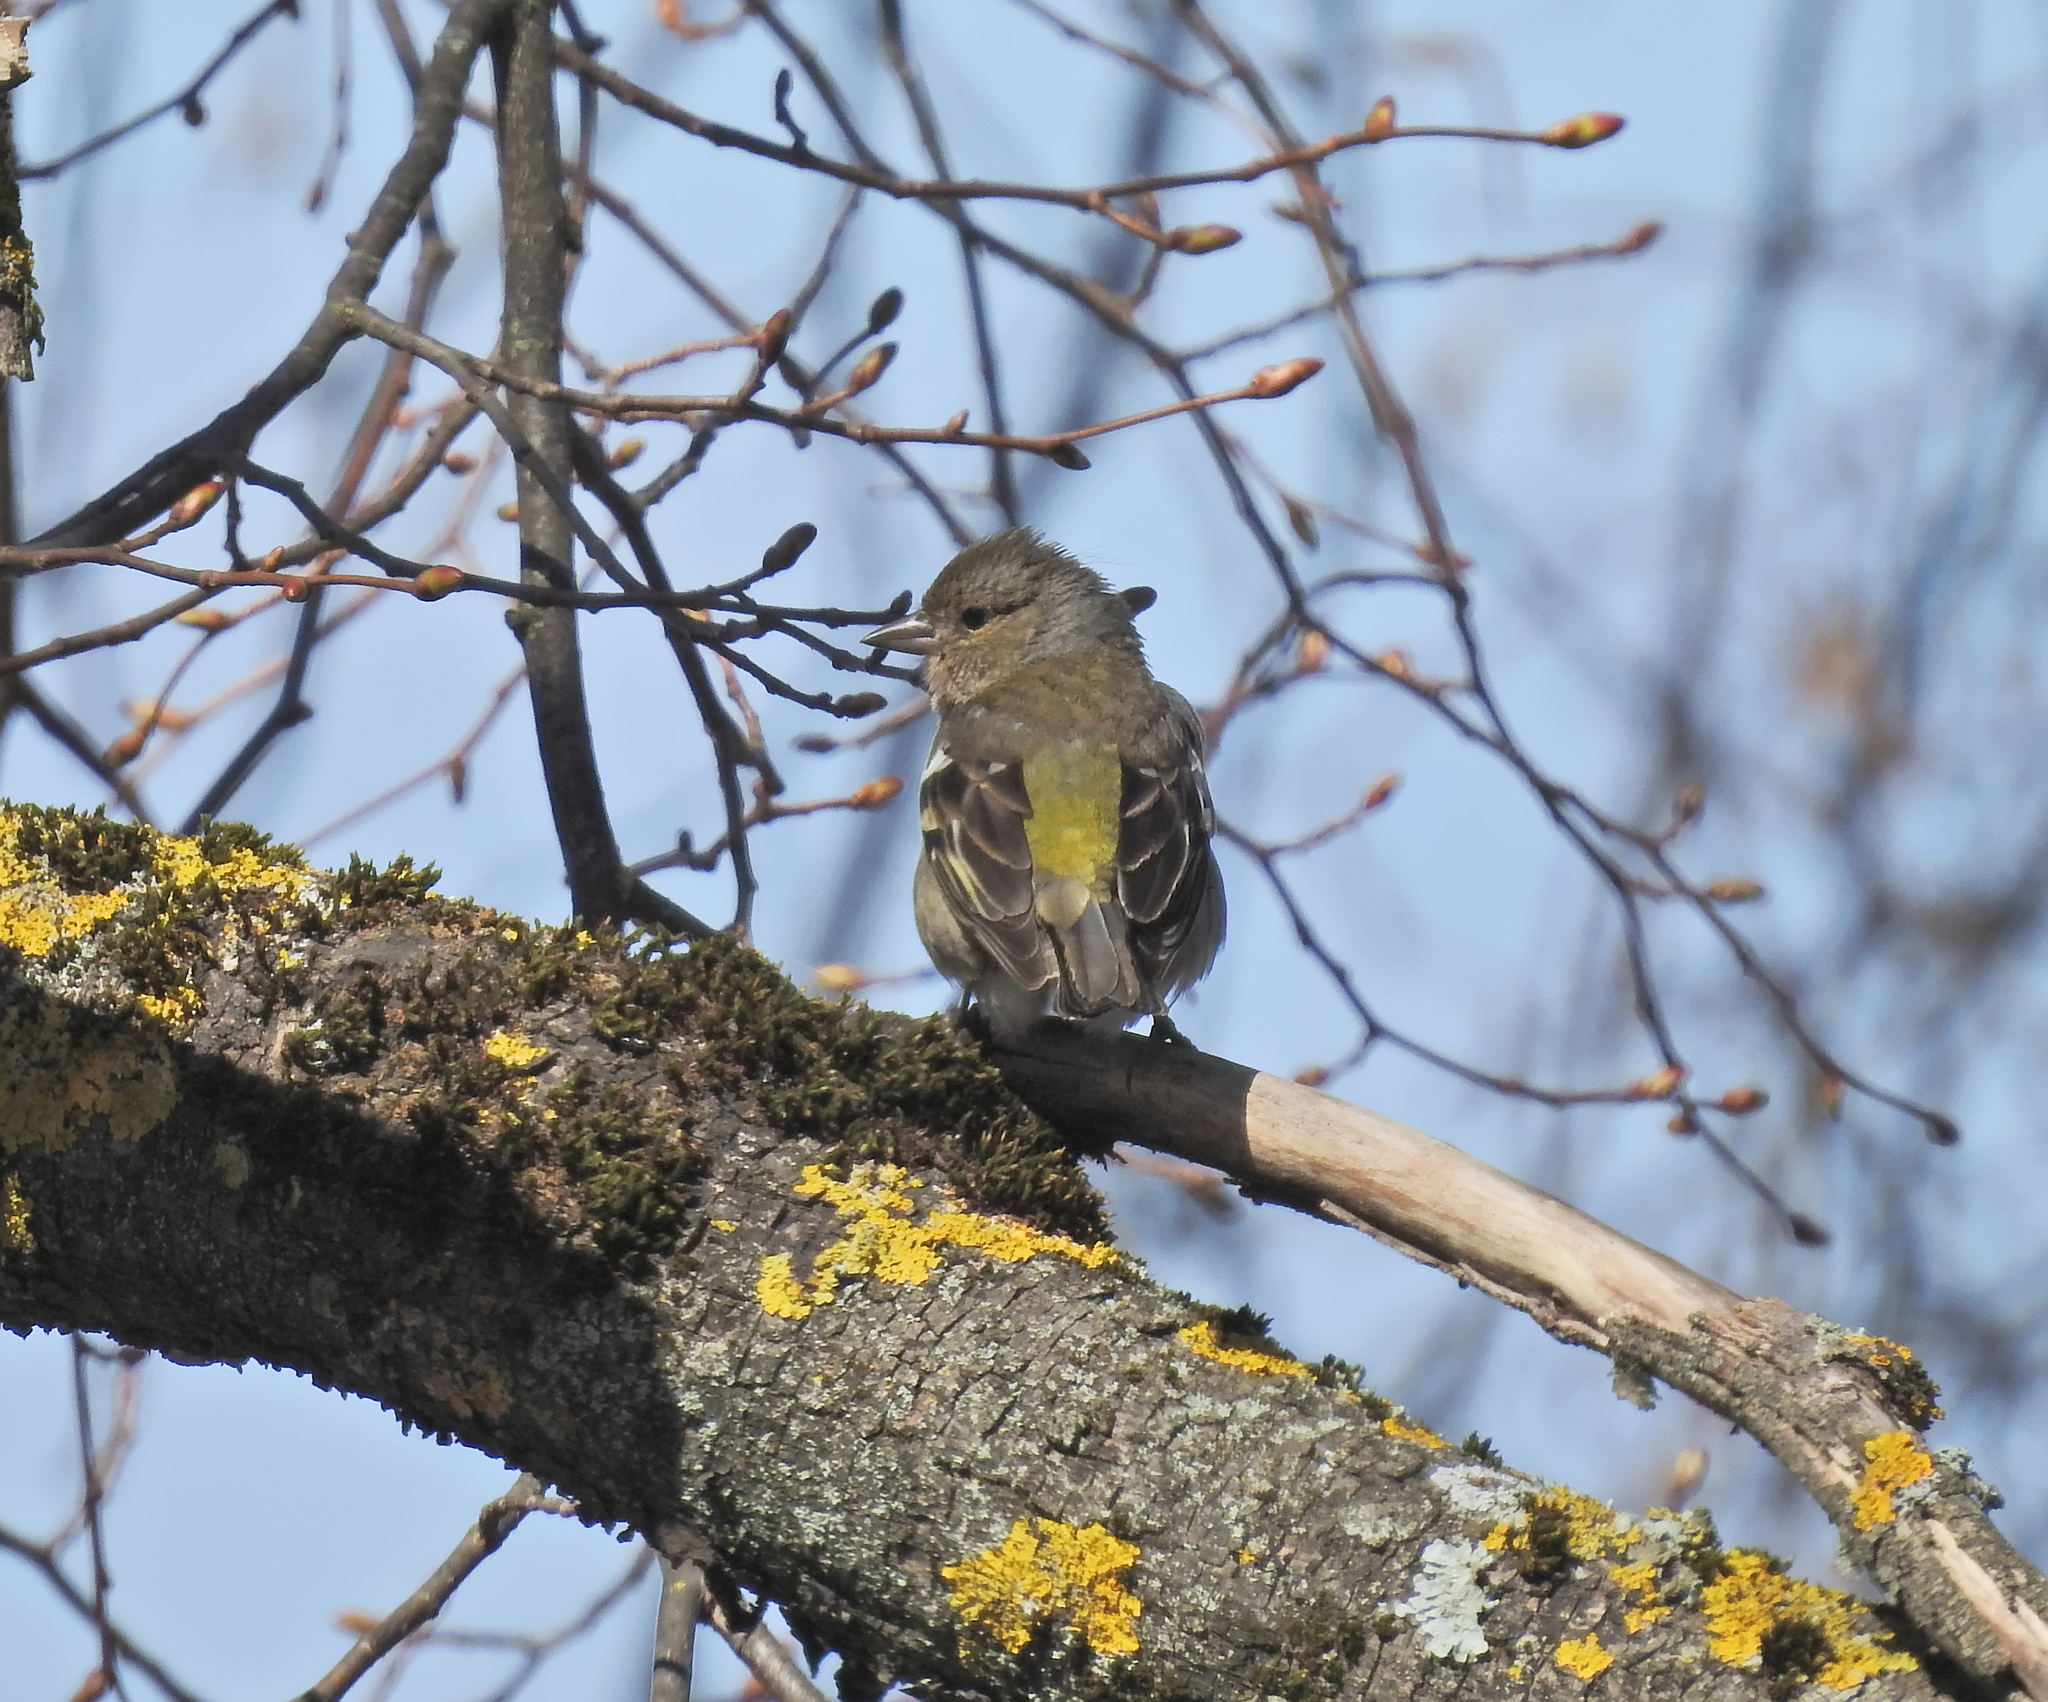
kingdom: Animalia
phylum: Chordata
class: Aves
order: Passeriformes
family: Fringillidae
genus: Fringilla
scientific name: Fringilla coelebs
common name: Common chaffinch
